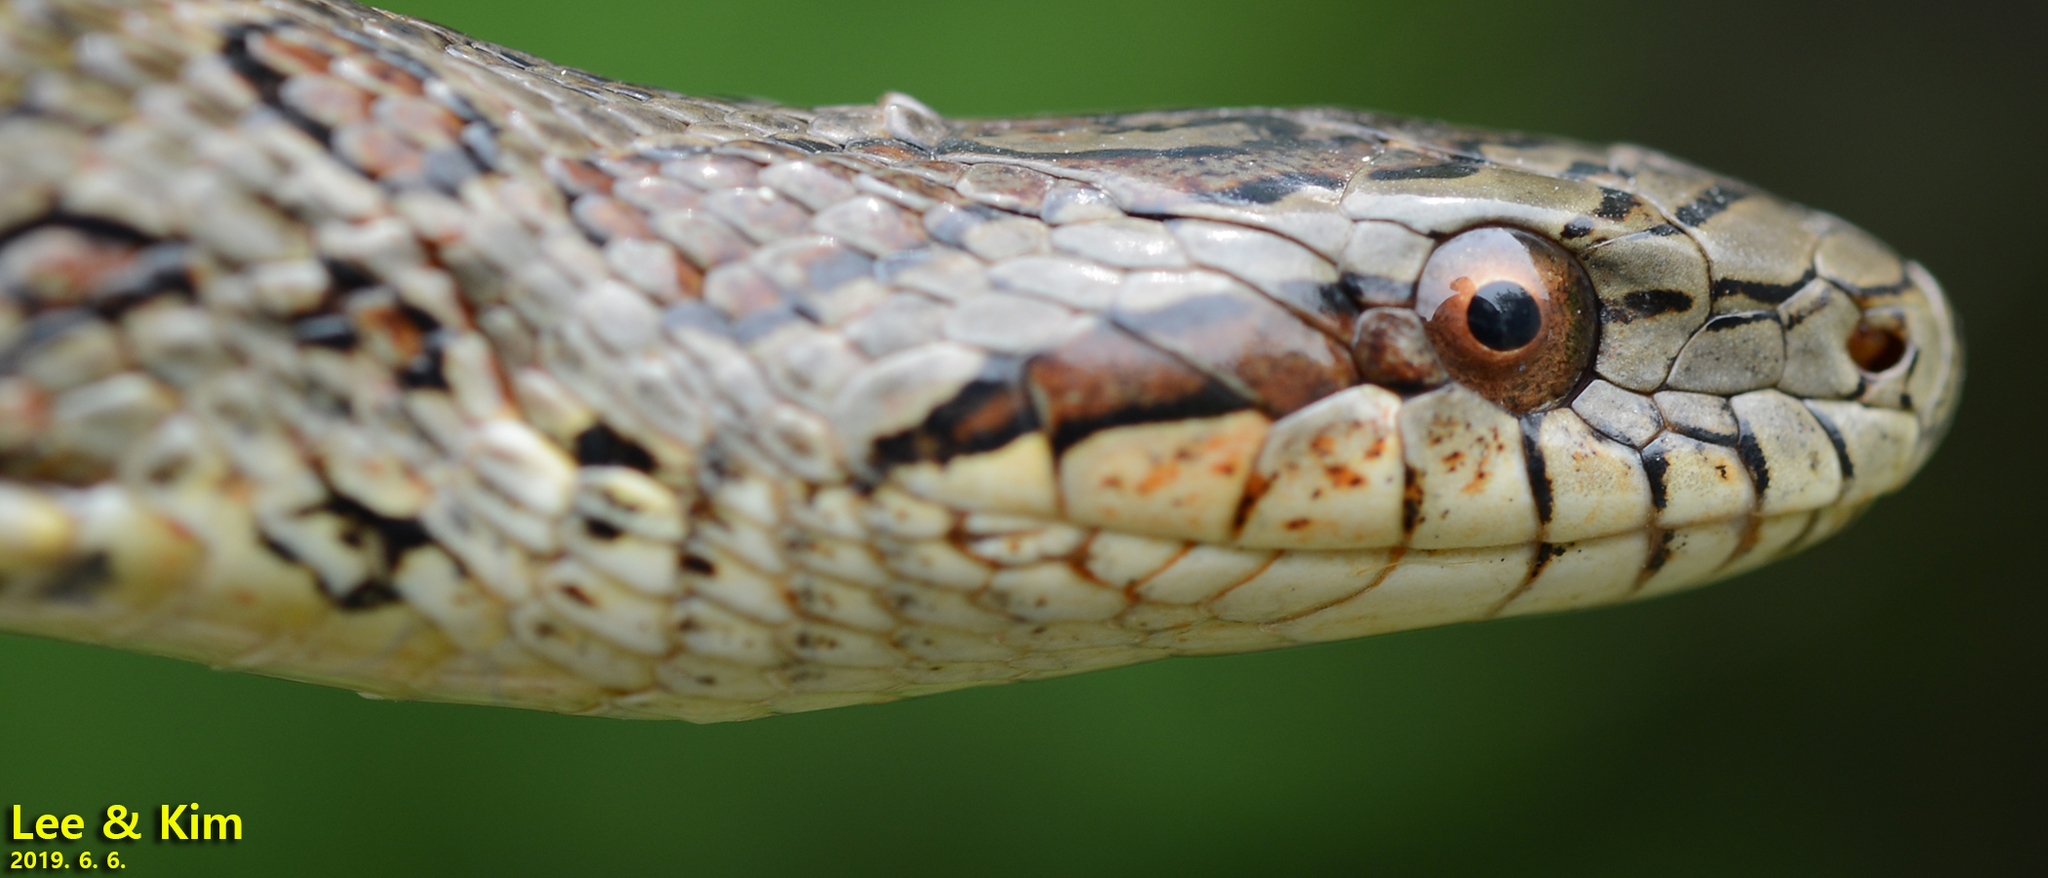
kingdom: Animalia
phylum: Chordata
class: Squamata
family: Colubridae
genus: Elaphe
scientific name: Elaphe dione
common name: Dione ratsnake
